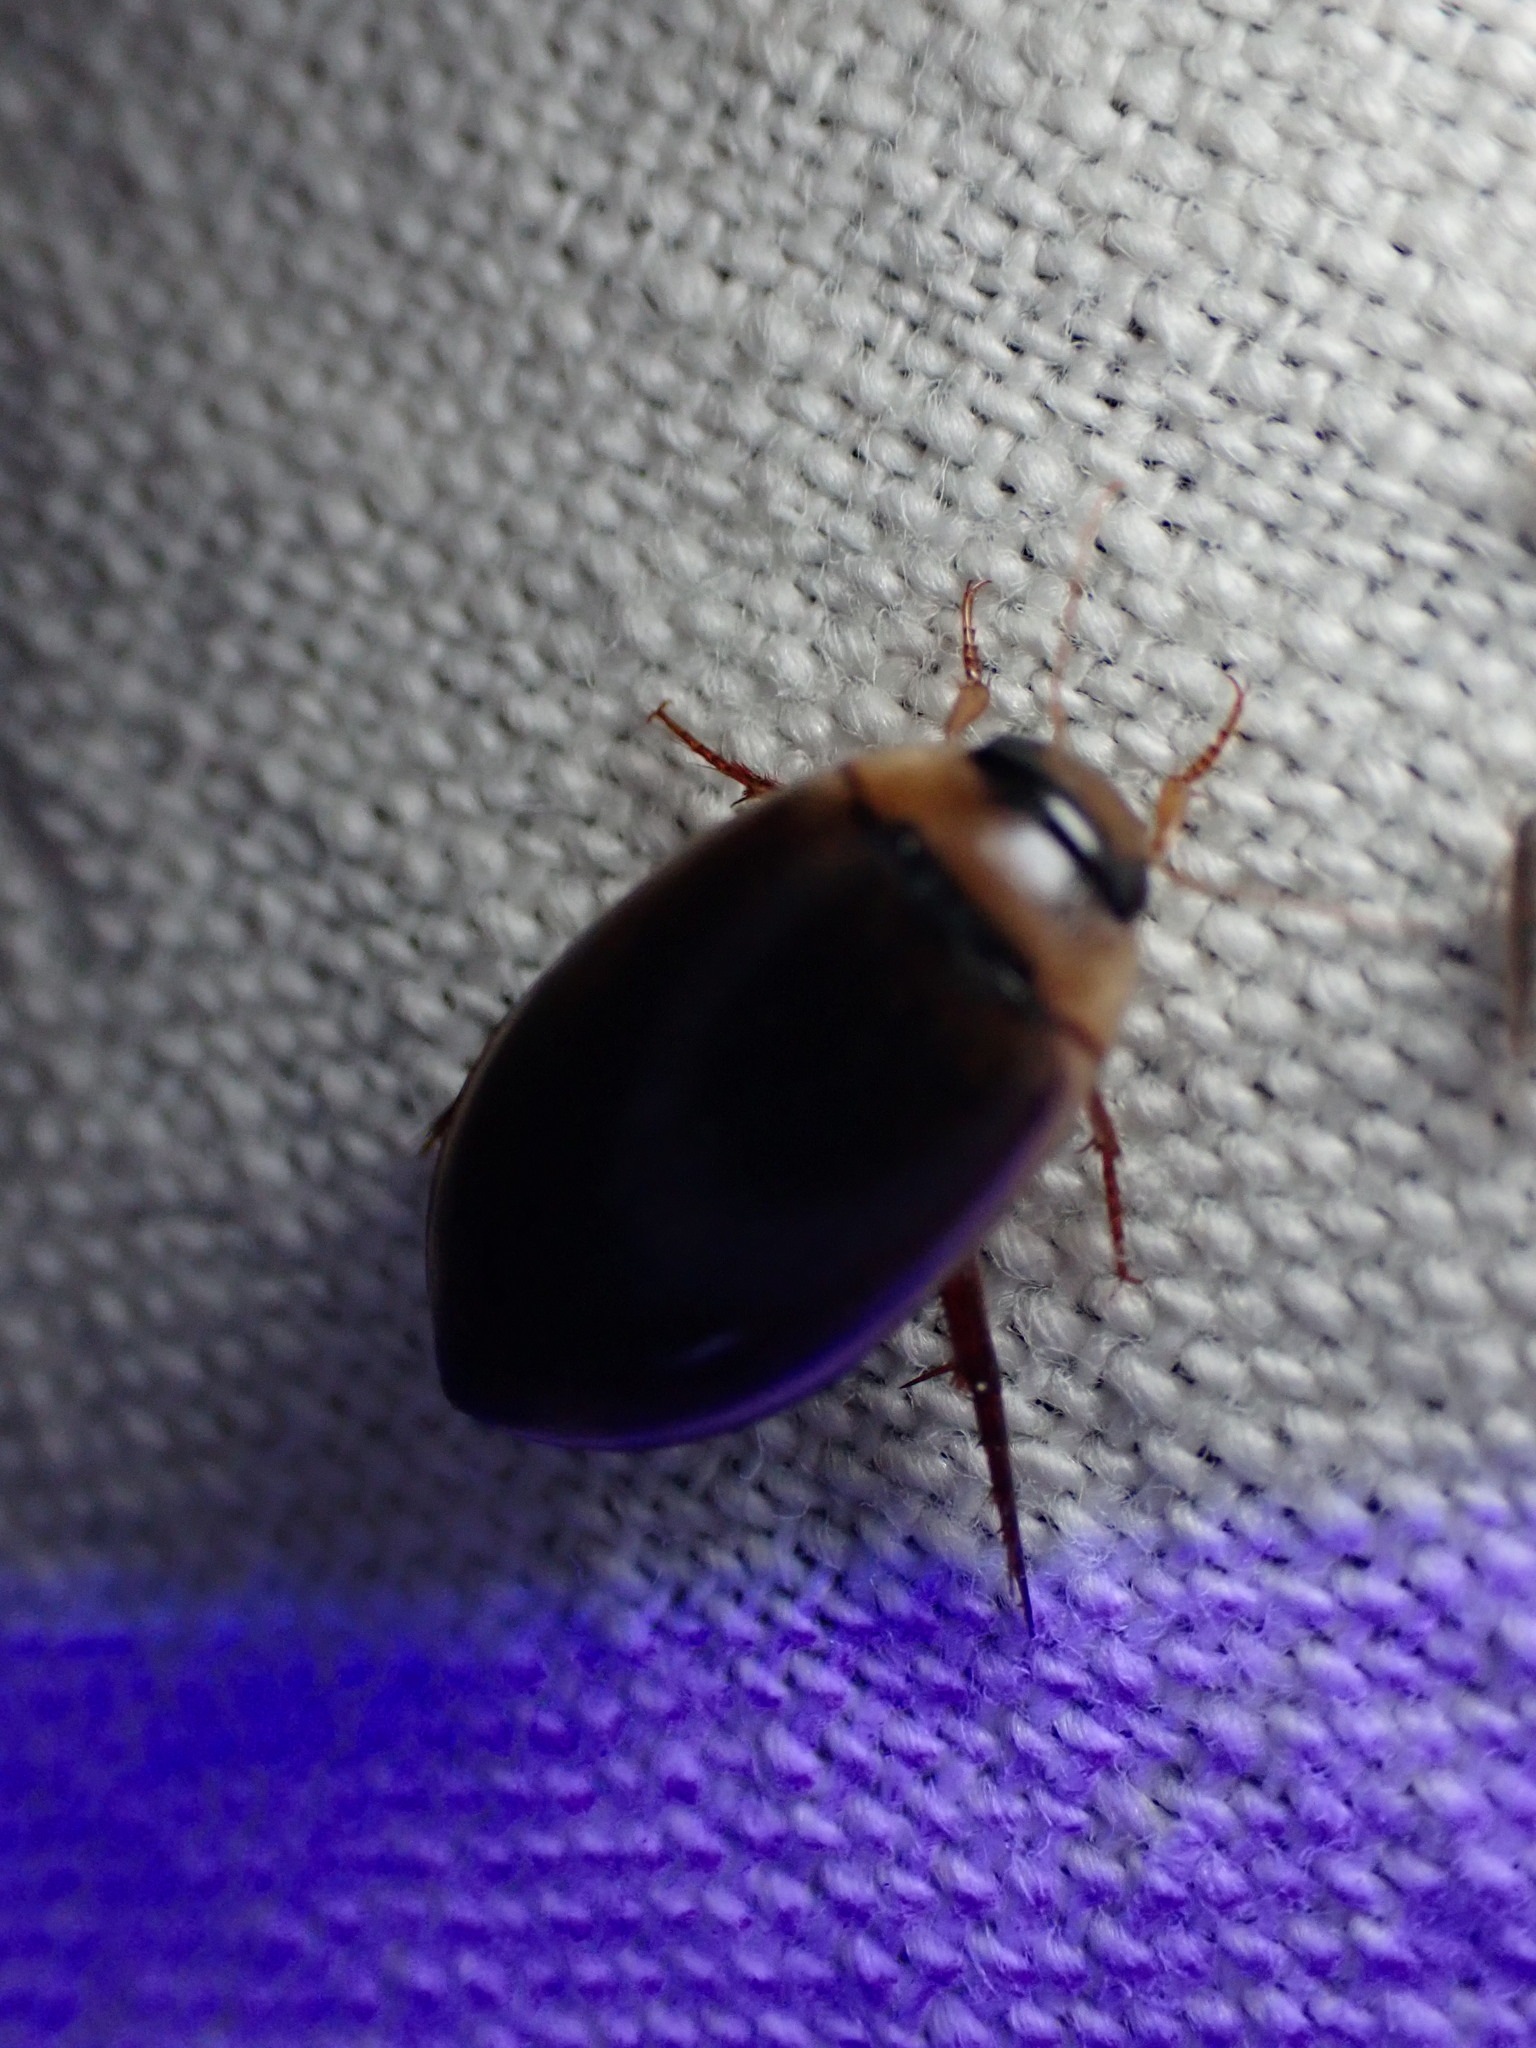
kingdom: Animalia
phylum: Arthropoda
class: Insecta
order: Coleoptera
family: Dytiscidae
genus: Hydaticus
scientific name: Hydaticus leander
